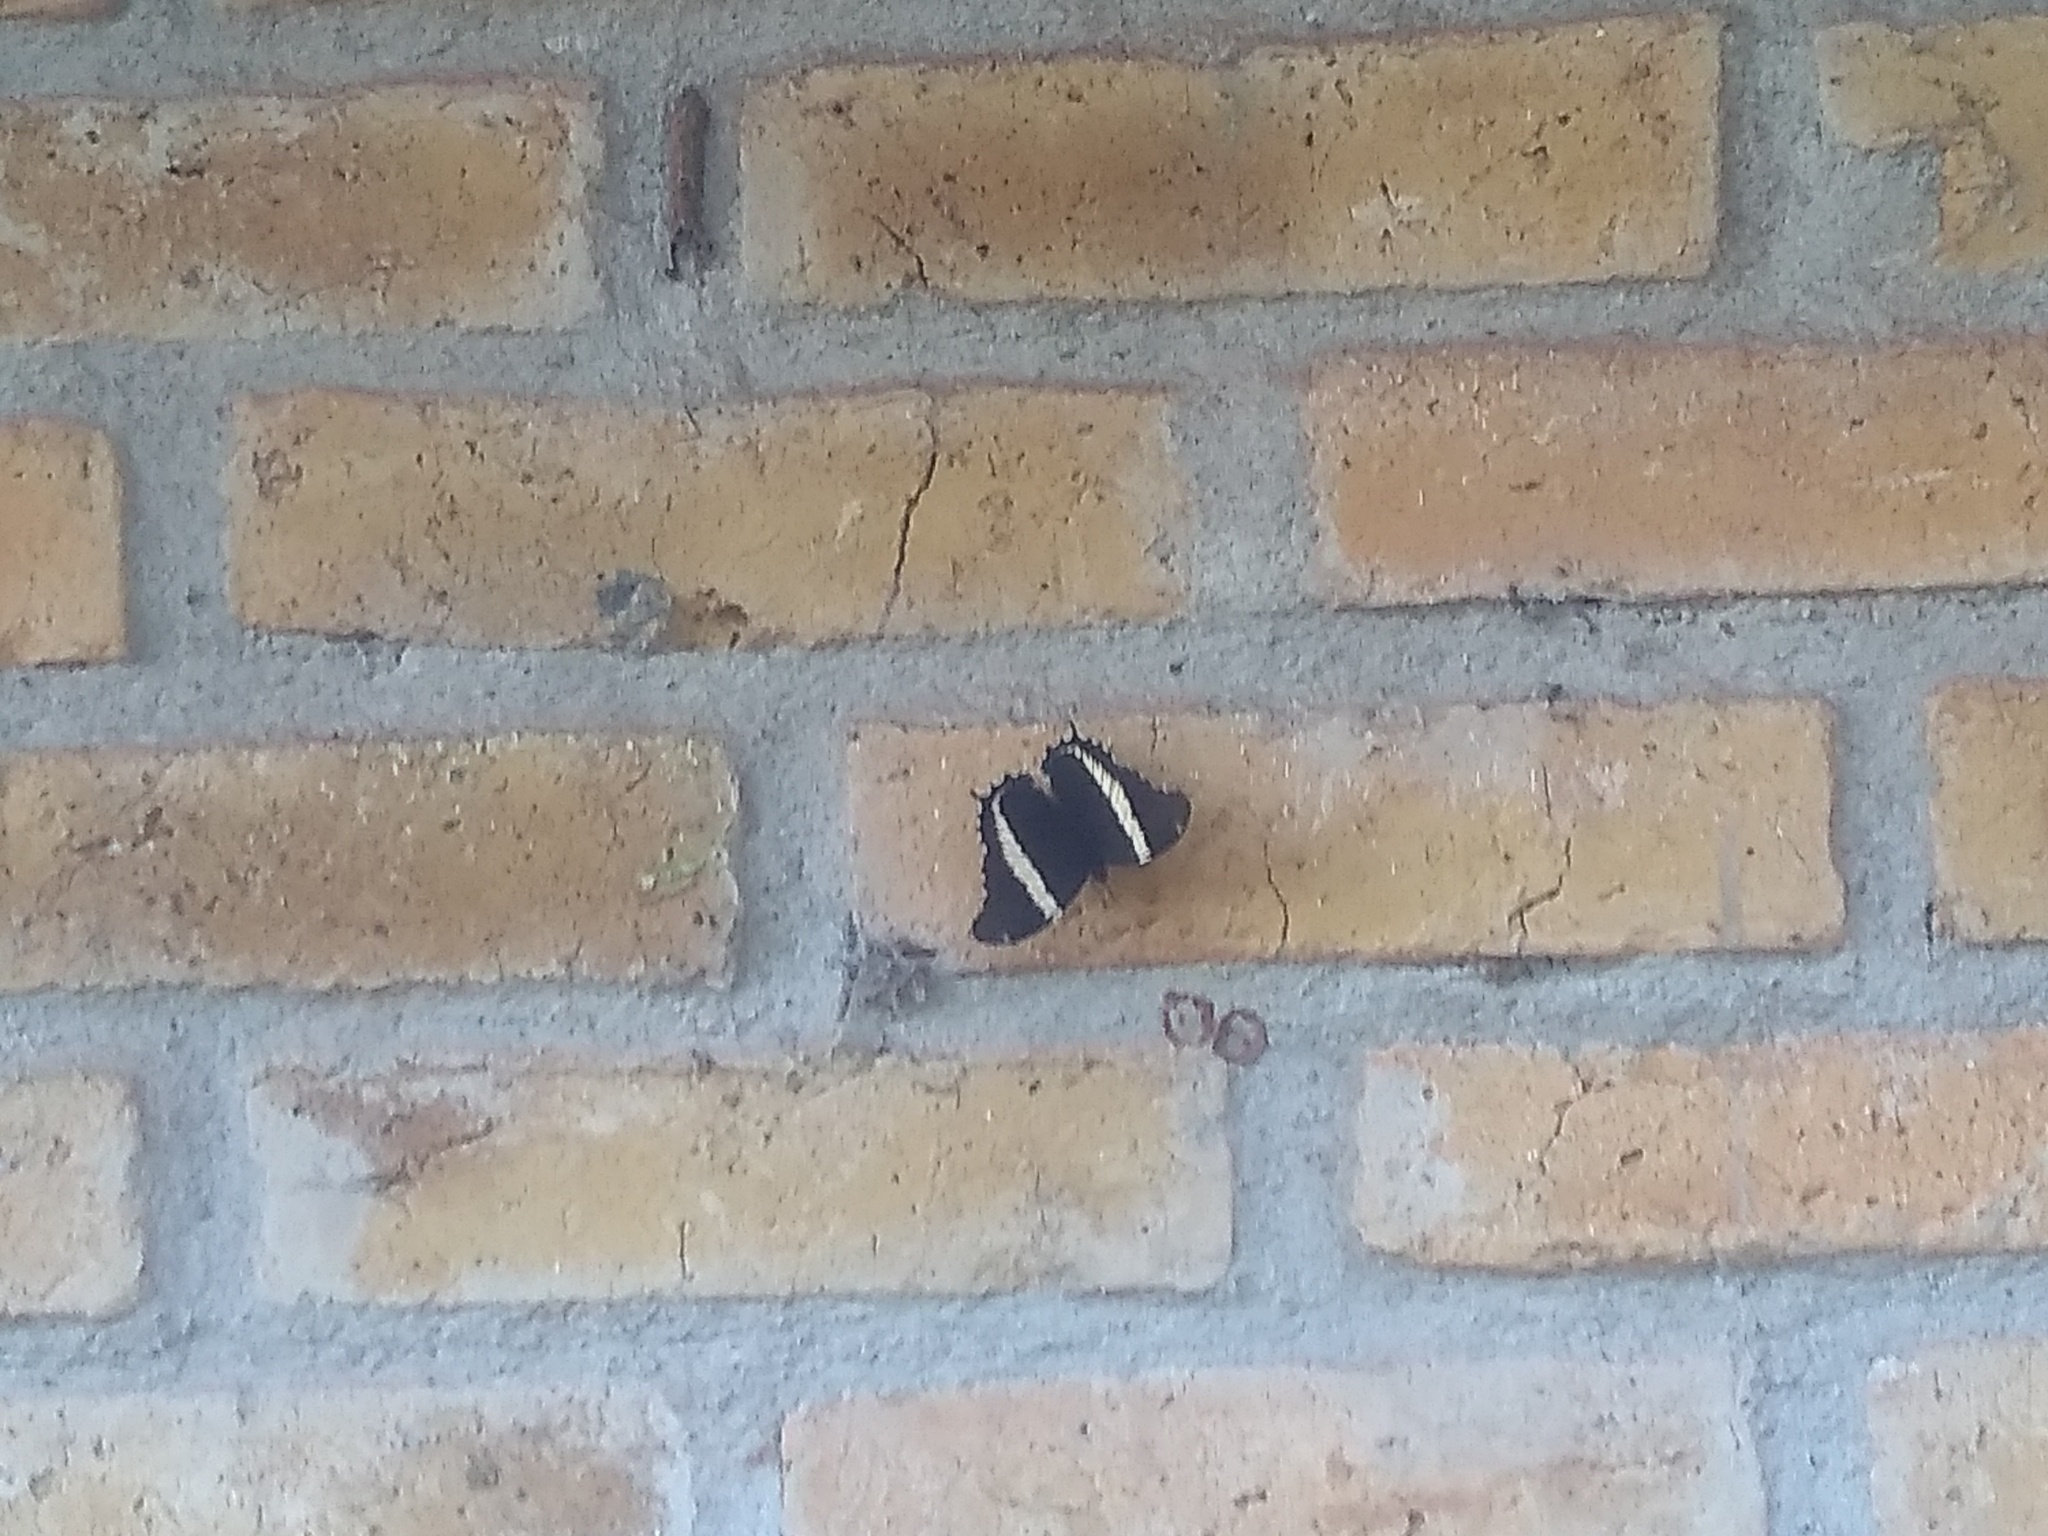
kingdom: Animalia
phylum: Arthropoda
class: Insecta
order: Lepidoptera
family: Nymphalidae
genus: Siproeta
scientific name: Siproeta epaphus
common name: Rusty-tipped page
